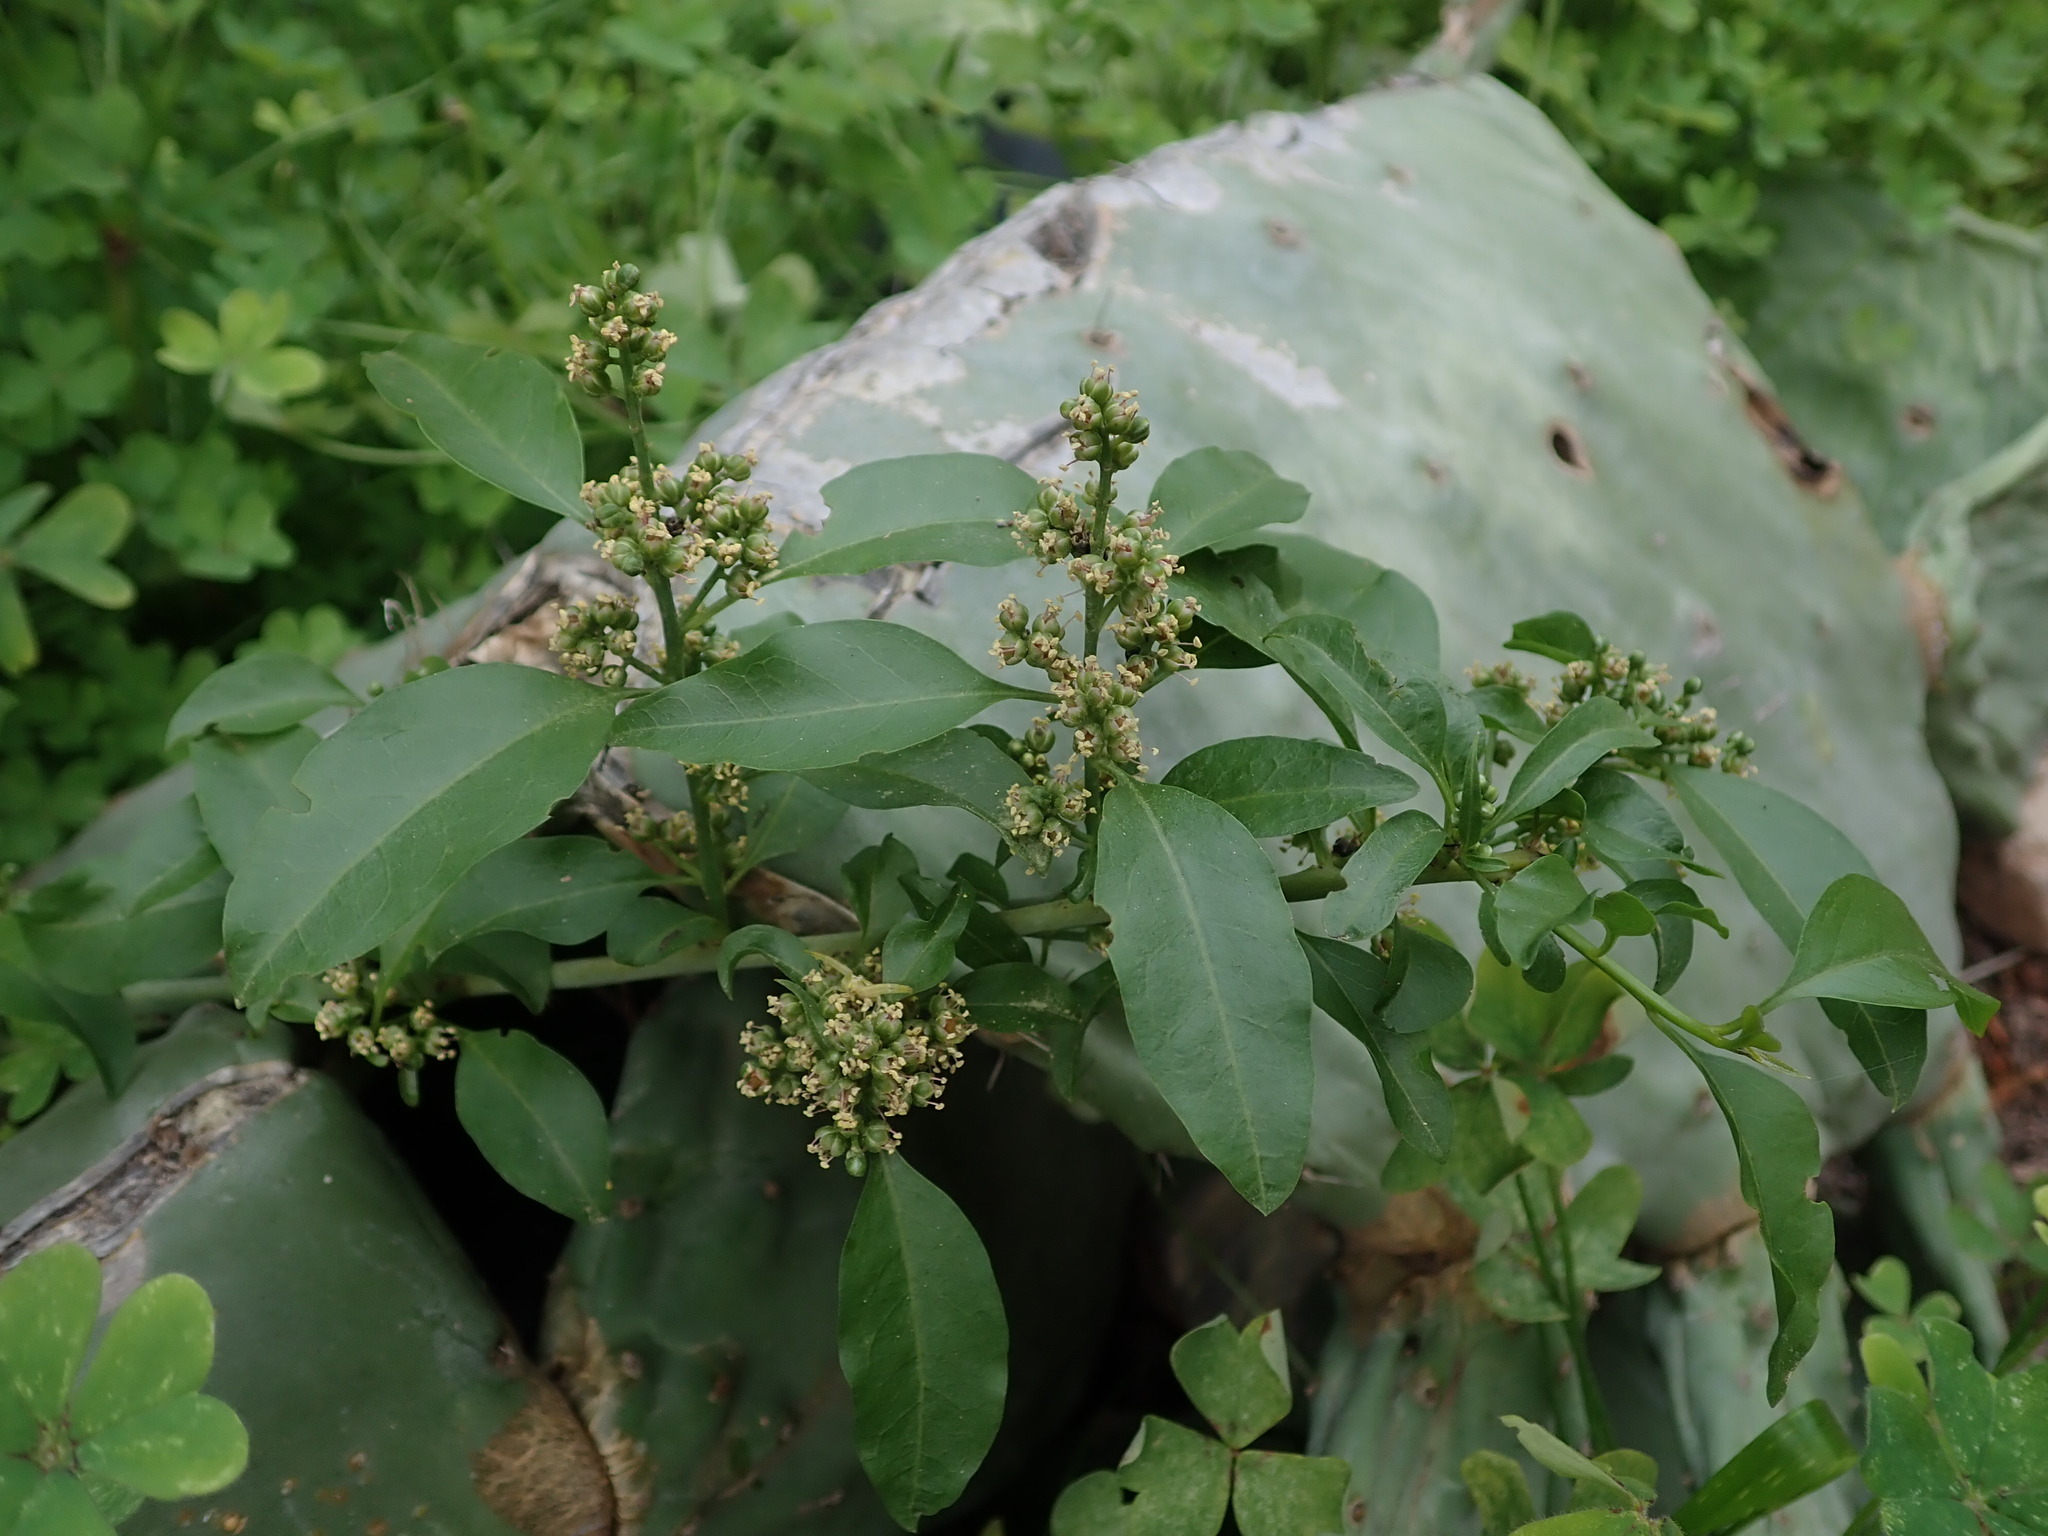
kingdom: Plantae
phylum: Tracheophyta
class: Magnoliopsida
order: Caryophyllales
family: Amaranthaceae
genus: Bosea
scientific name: Bosea yervamora
